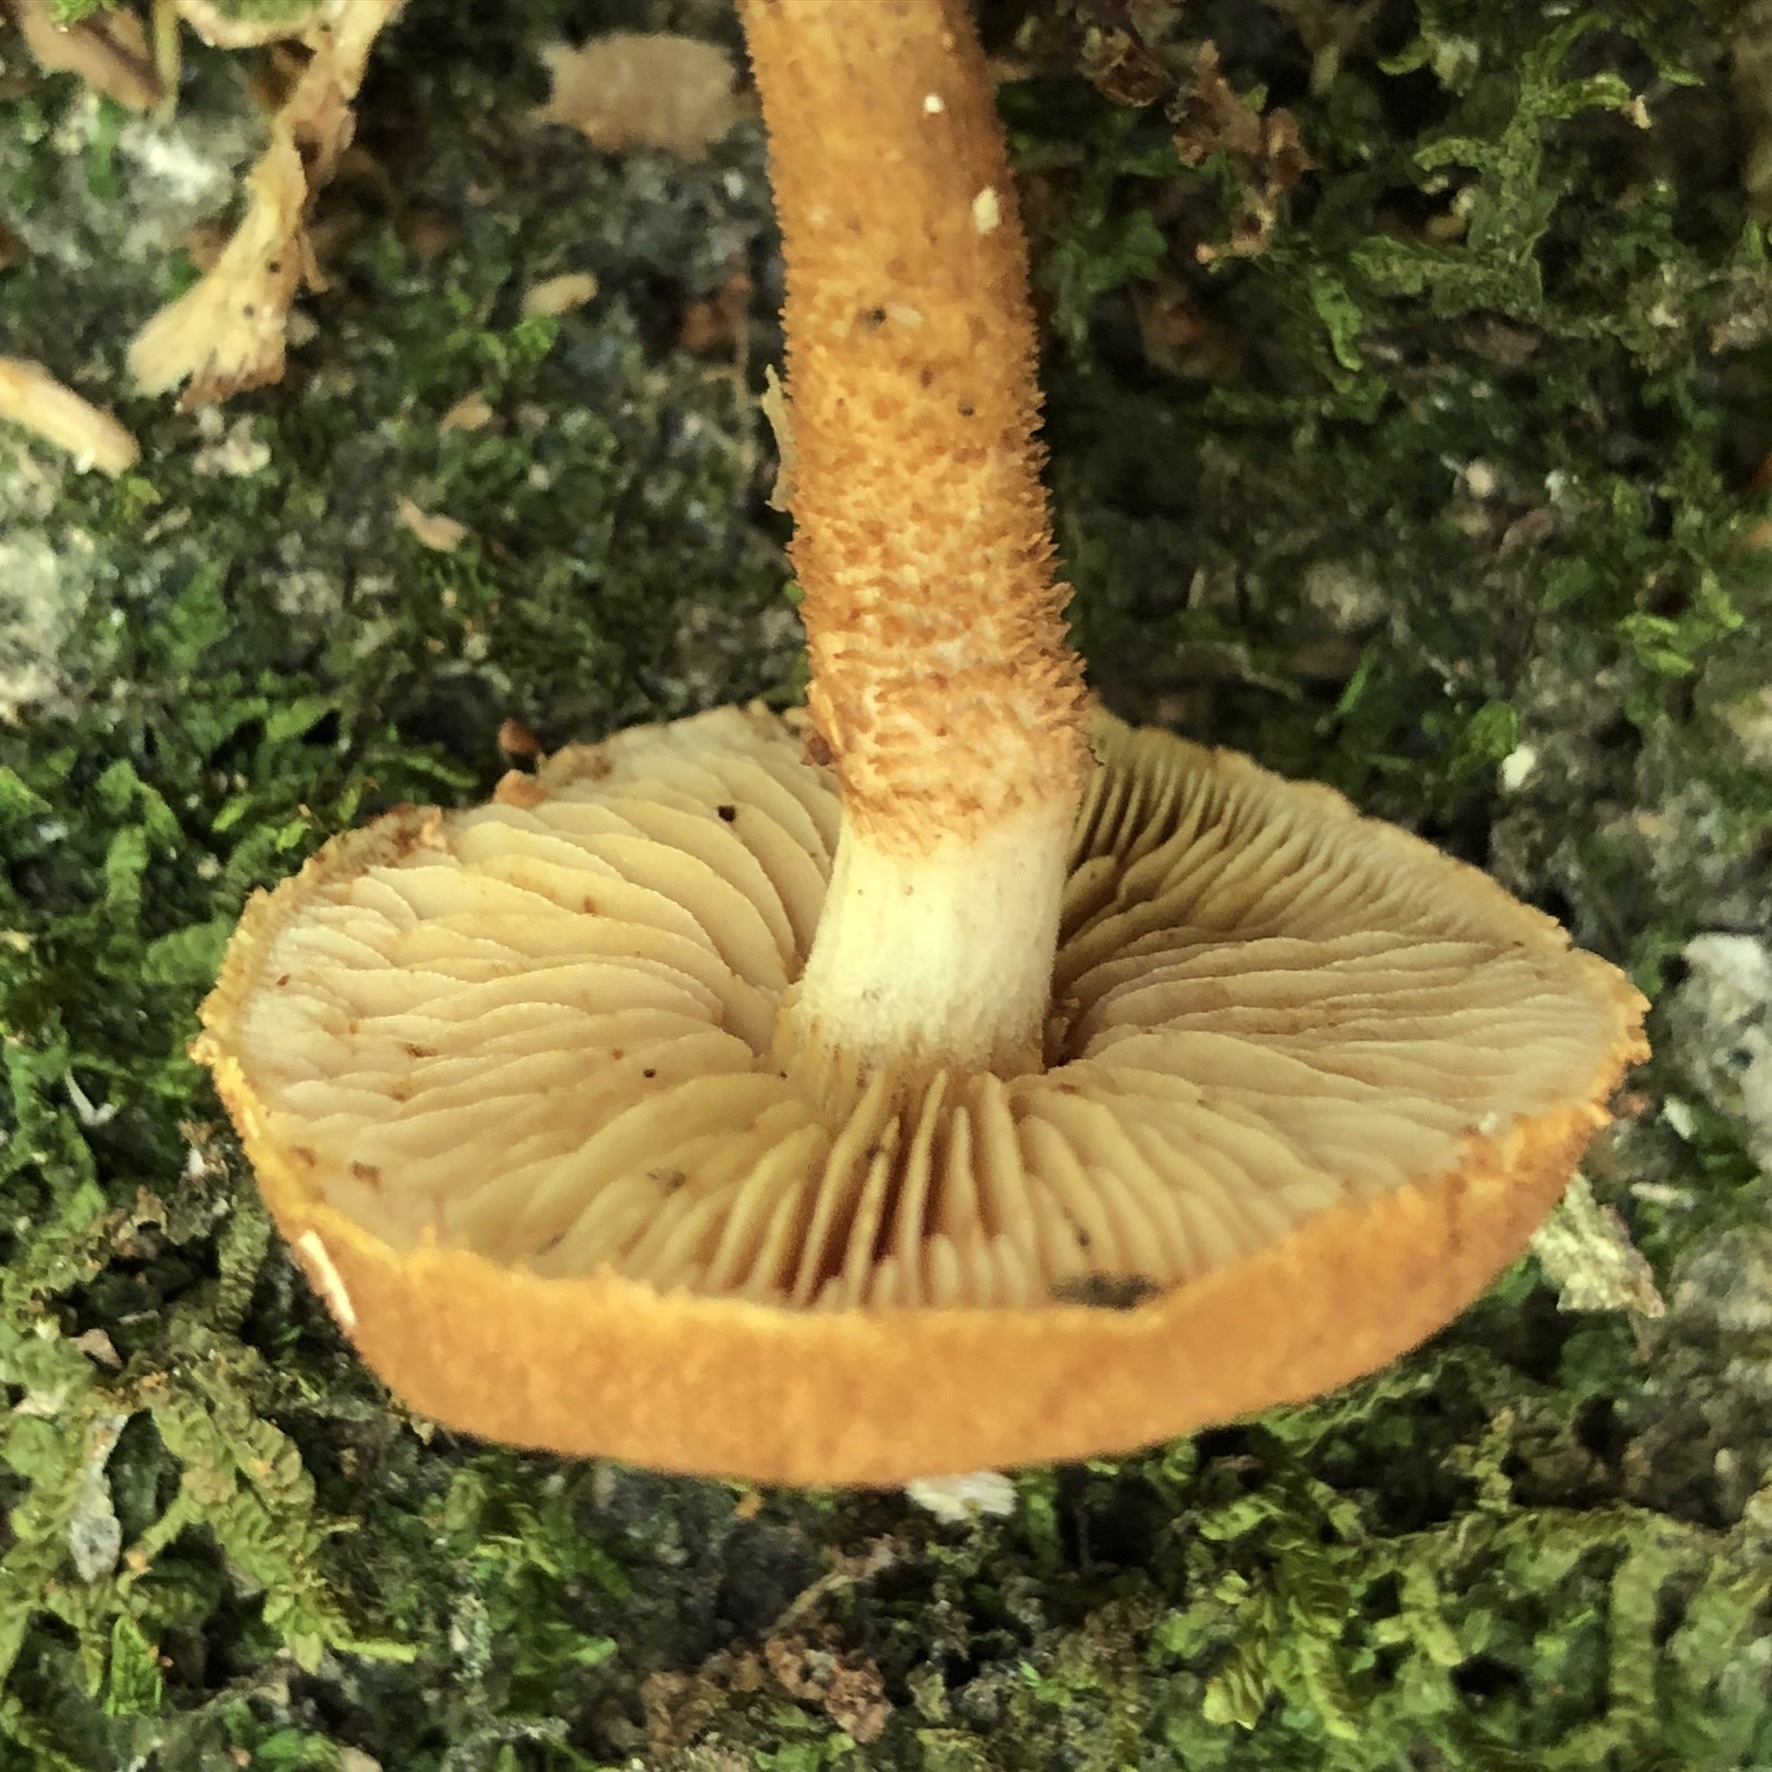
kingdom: Fungi
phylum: Basidiomycota
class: Agaricomycetes
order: Agaricales
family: Tubariaceae
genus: Flammulaster
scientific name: Flammulaster erinaceellus
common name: Powder-scale pholiota
